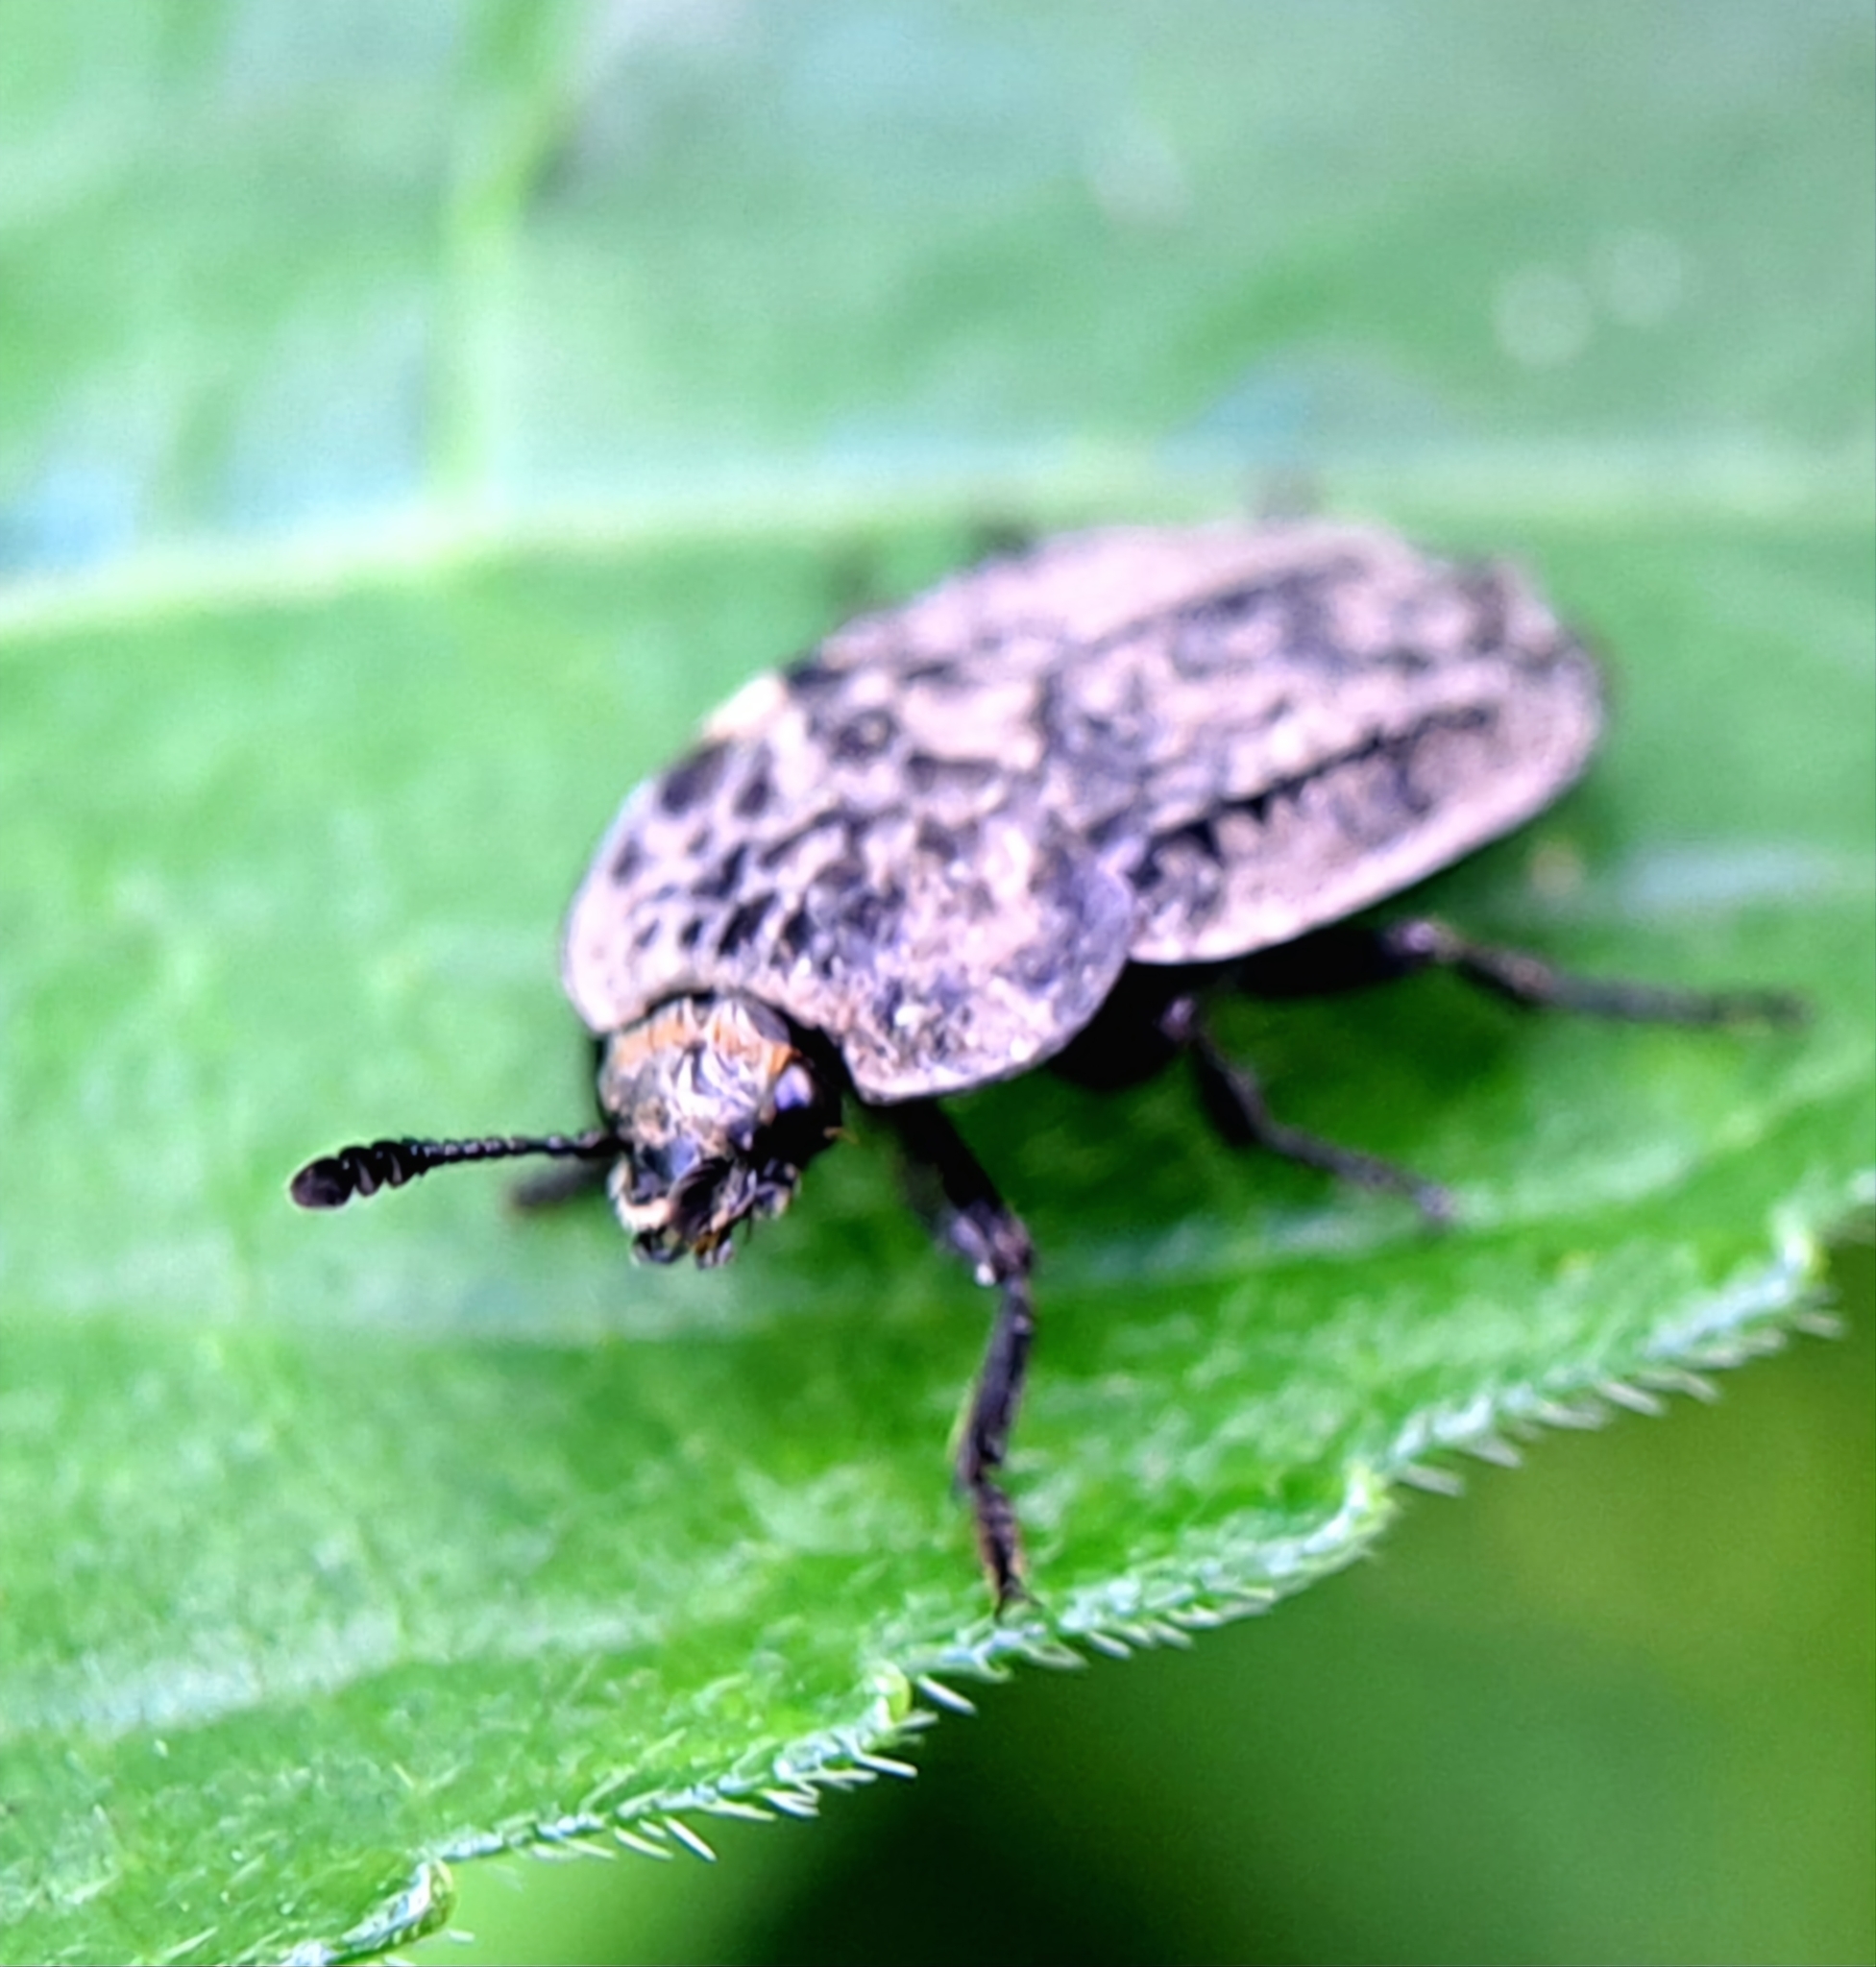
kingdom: Animalia
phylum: Arthropoda
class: Insecta
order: Coleoptera
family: Staphylinidae
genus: Thanatophilus
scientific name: Thanatophilus rugosus
